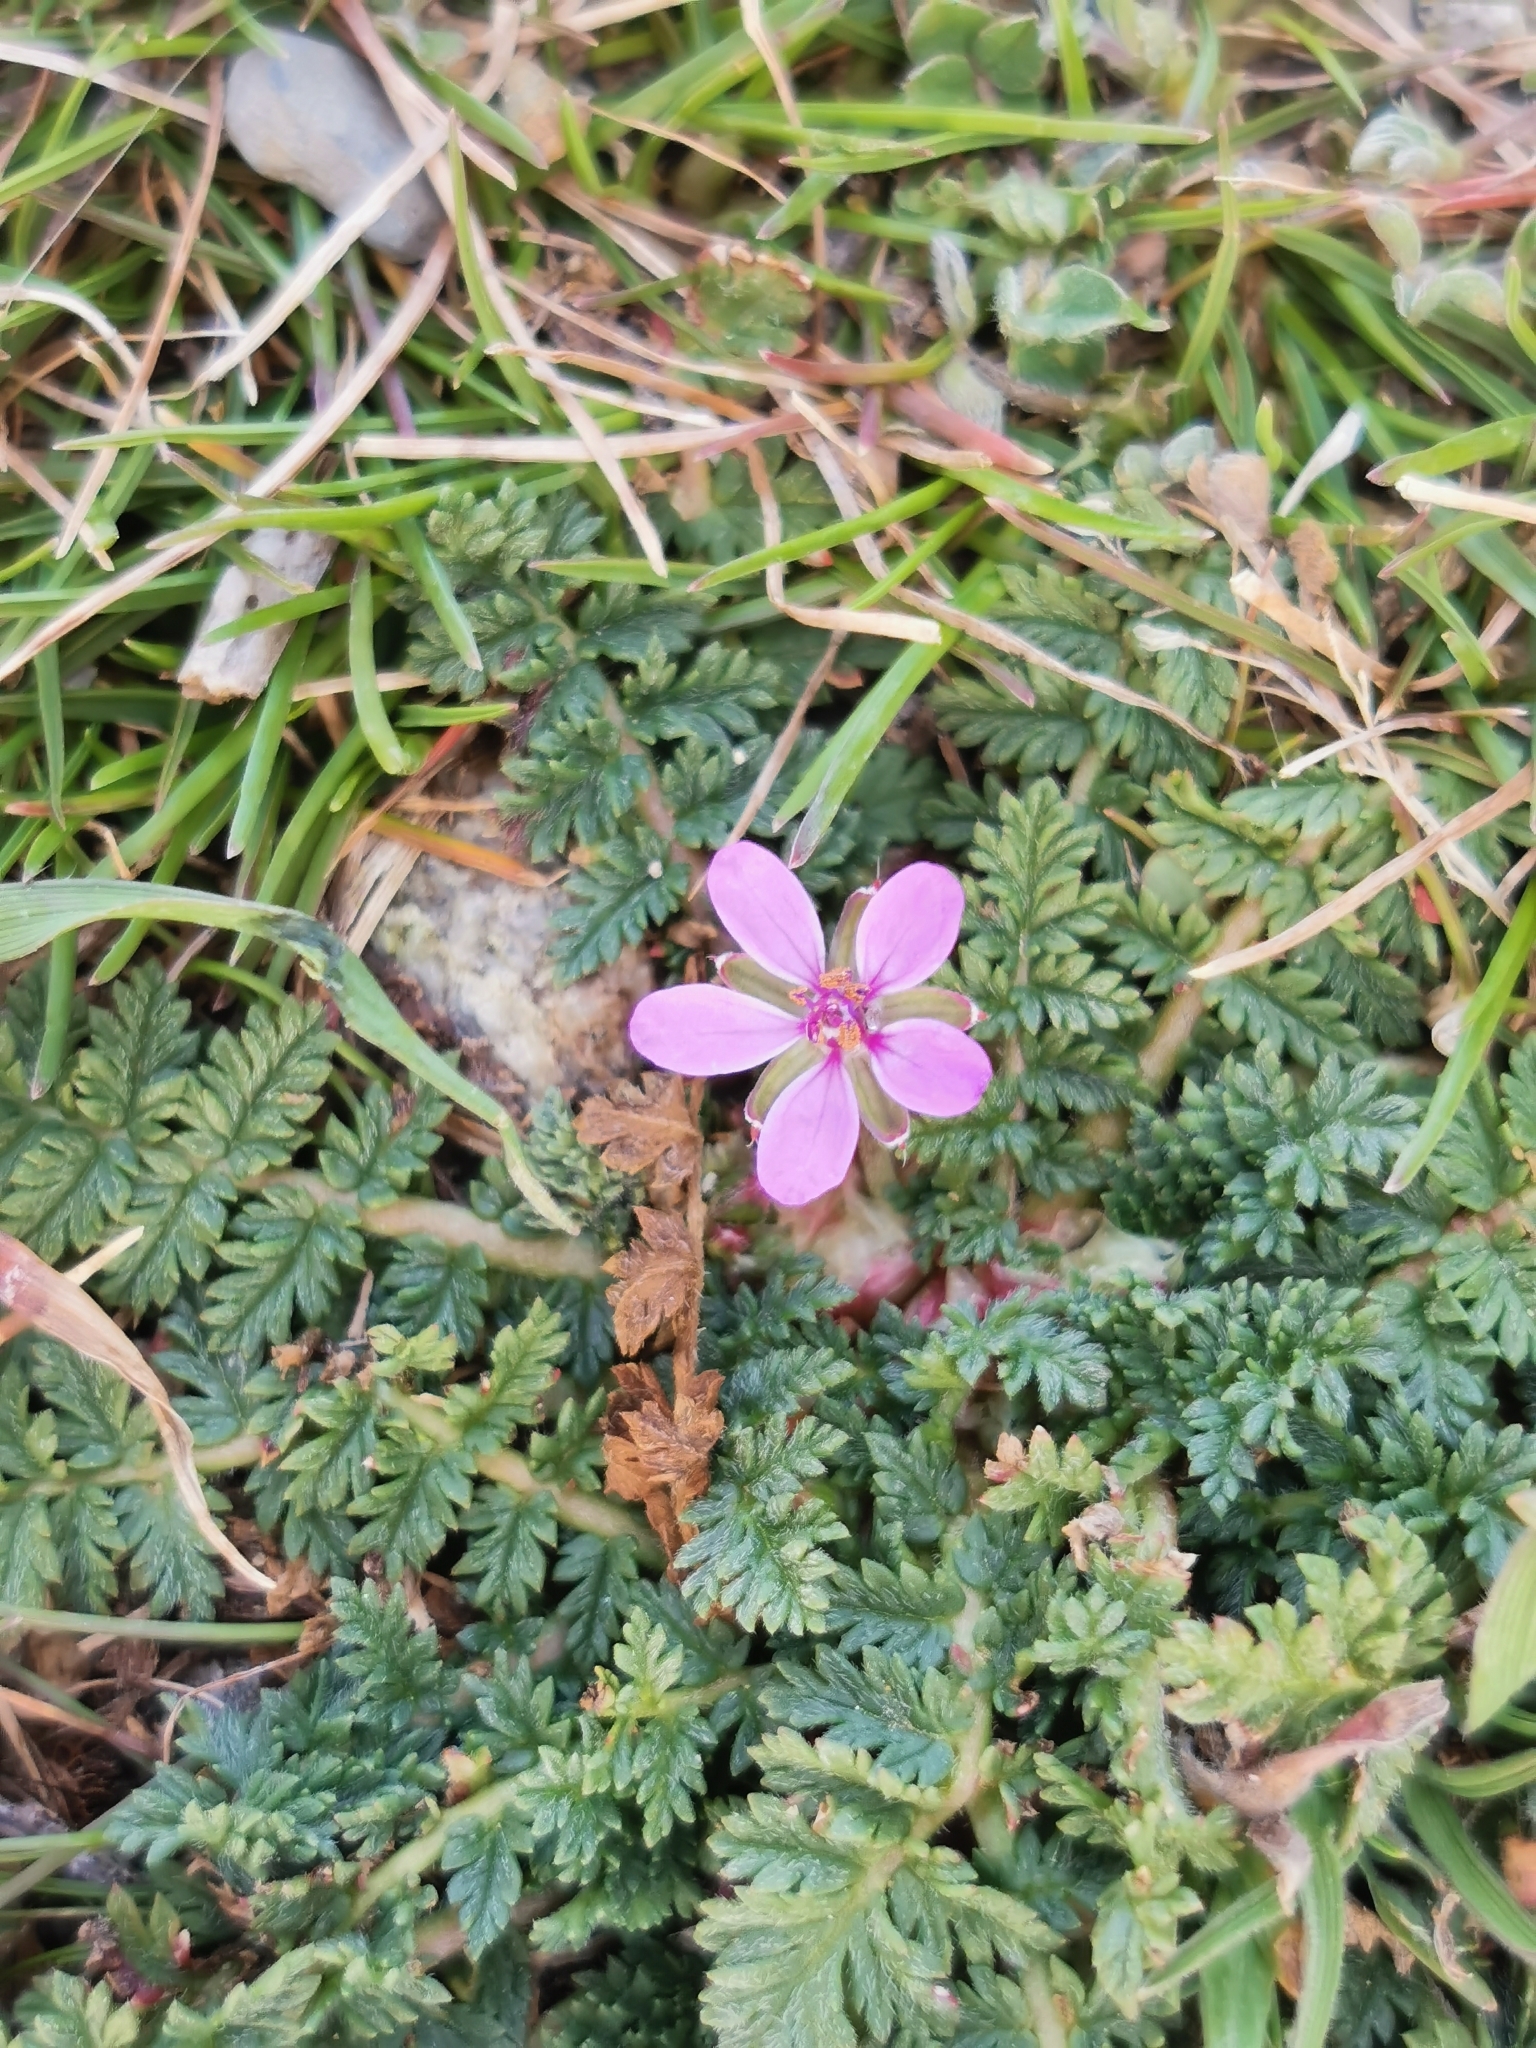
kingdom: Plantae
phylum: Tracheophyta
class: Magnoliopsida
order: Geraniales
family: Geraniaceae
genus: Erodium
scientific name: Erodium cicutarium
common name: Common stork's-bill
